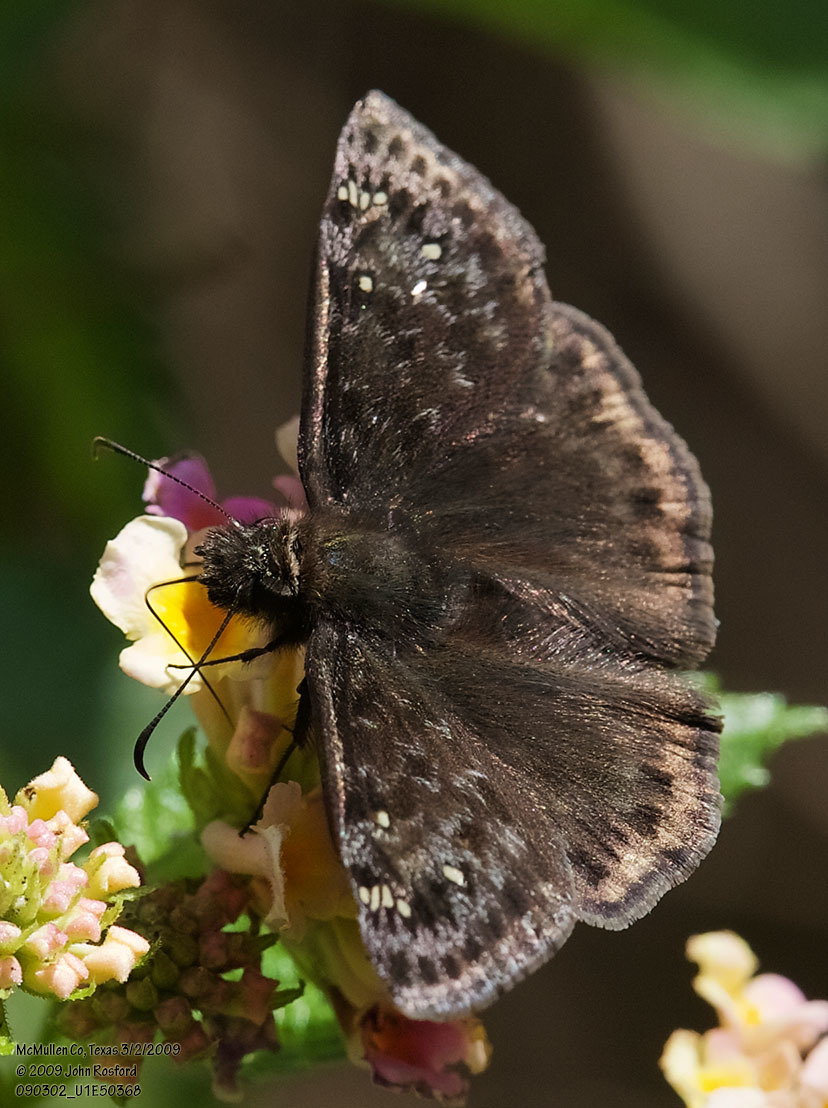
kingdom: Animalia
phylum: Arthropoda
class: Insecta
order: Lepidoptera
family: Hesperiidae
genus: Erynnis
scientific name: Erynnis juvenalis
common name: Juvenal's duskywing
